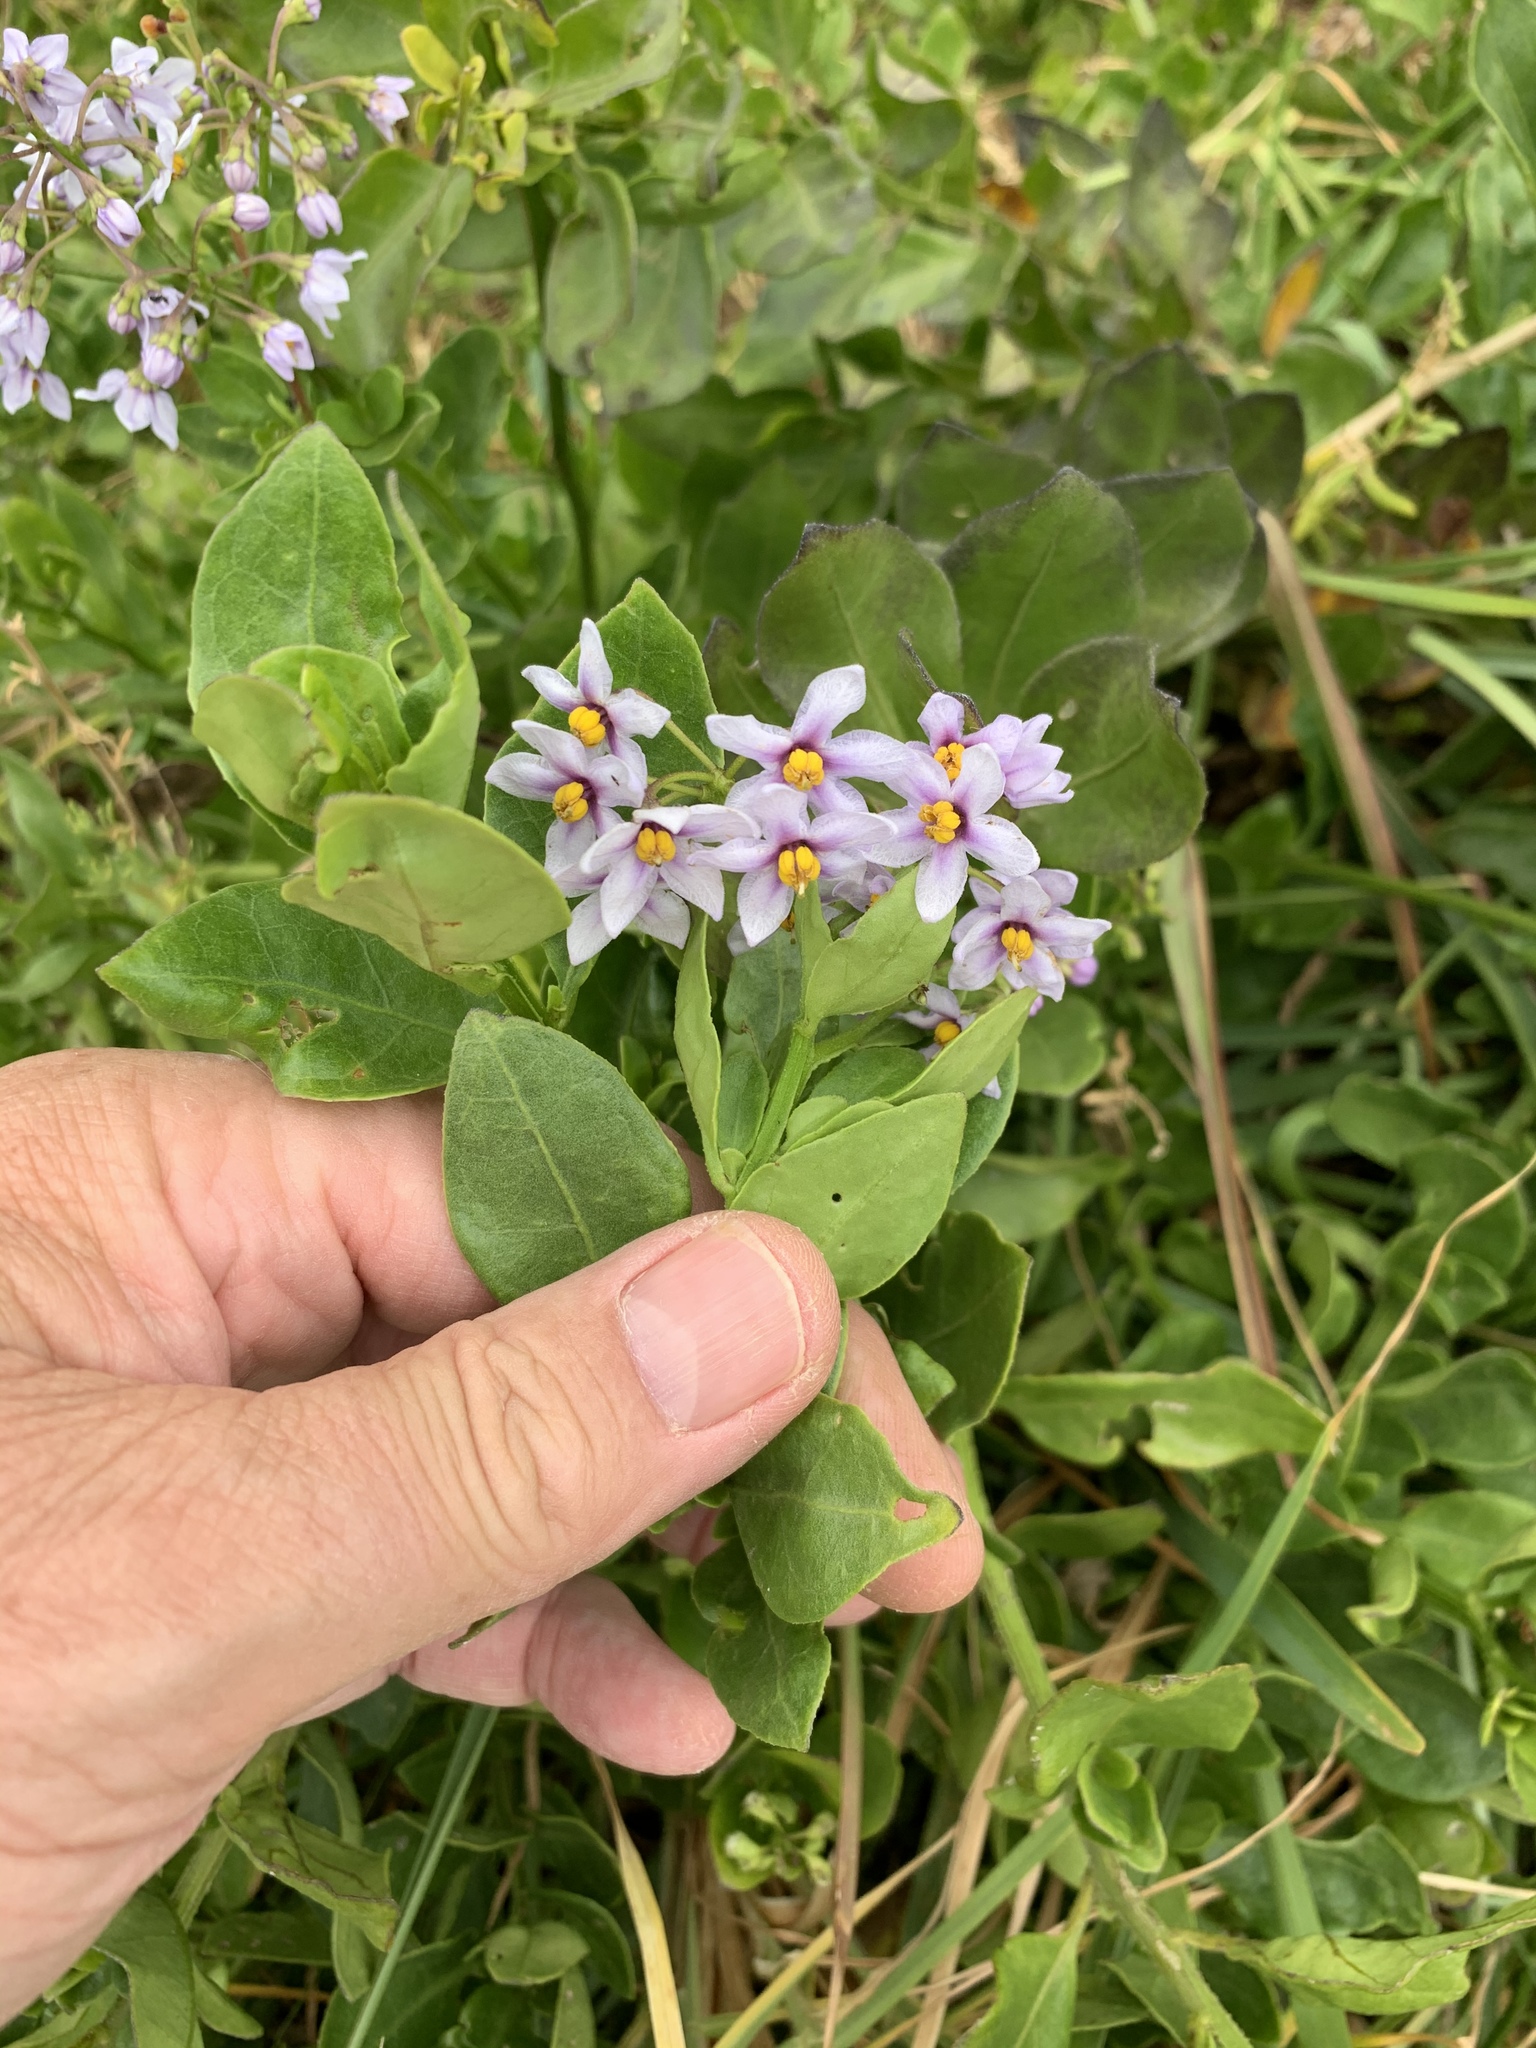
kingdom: Plantae
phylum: Tracheophyta
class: Magnoliopsida
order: Solanales
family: Solanaceae
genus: Solanum
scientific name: Solanum africanum
